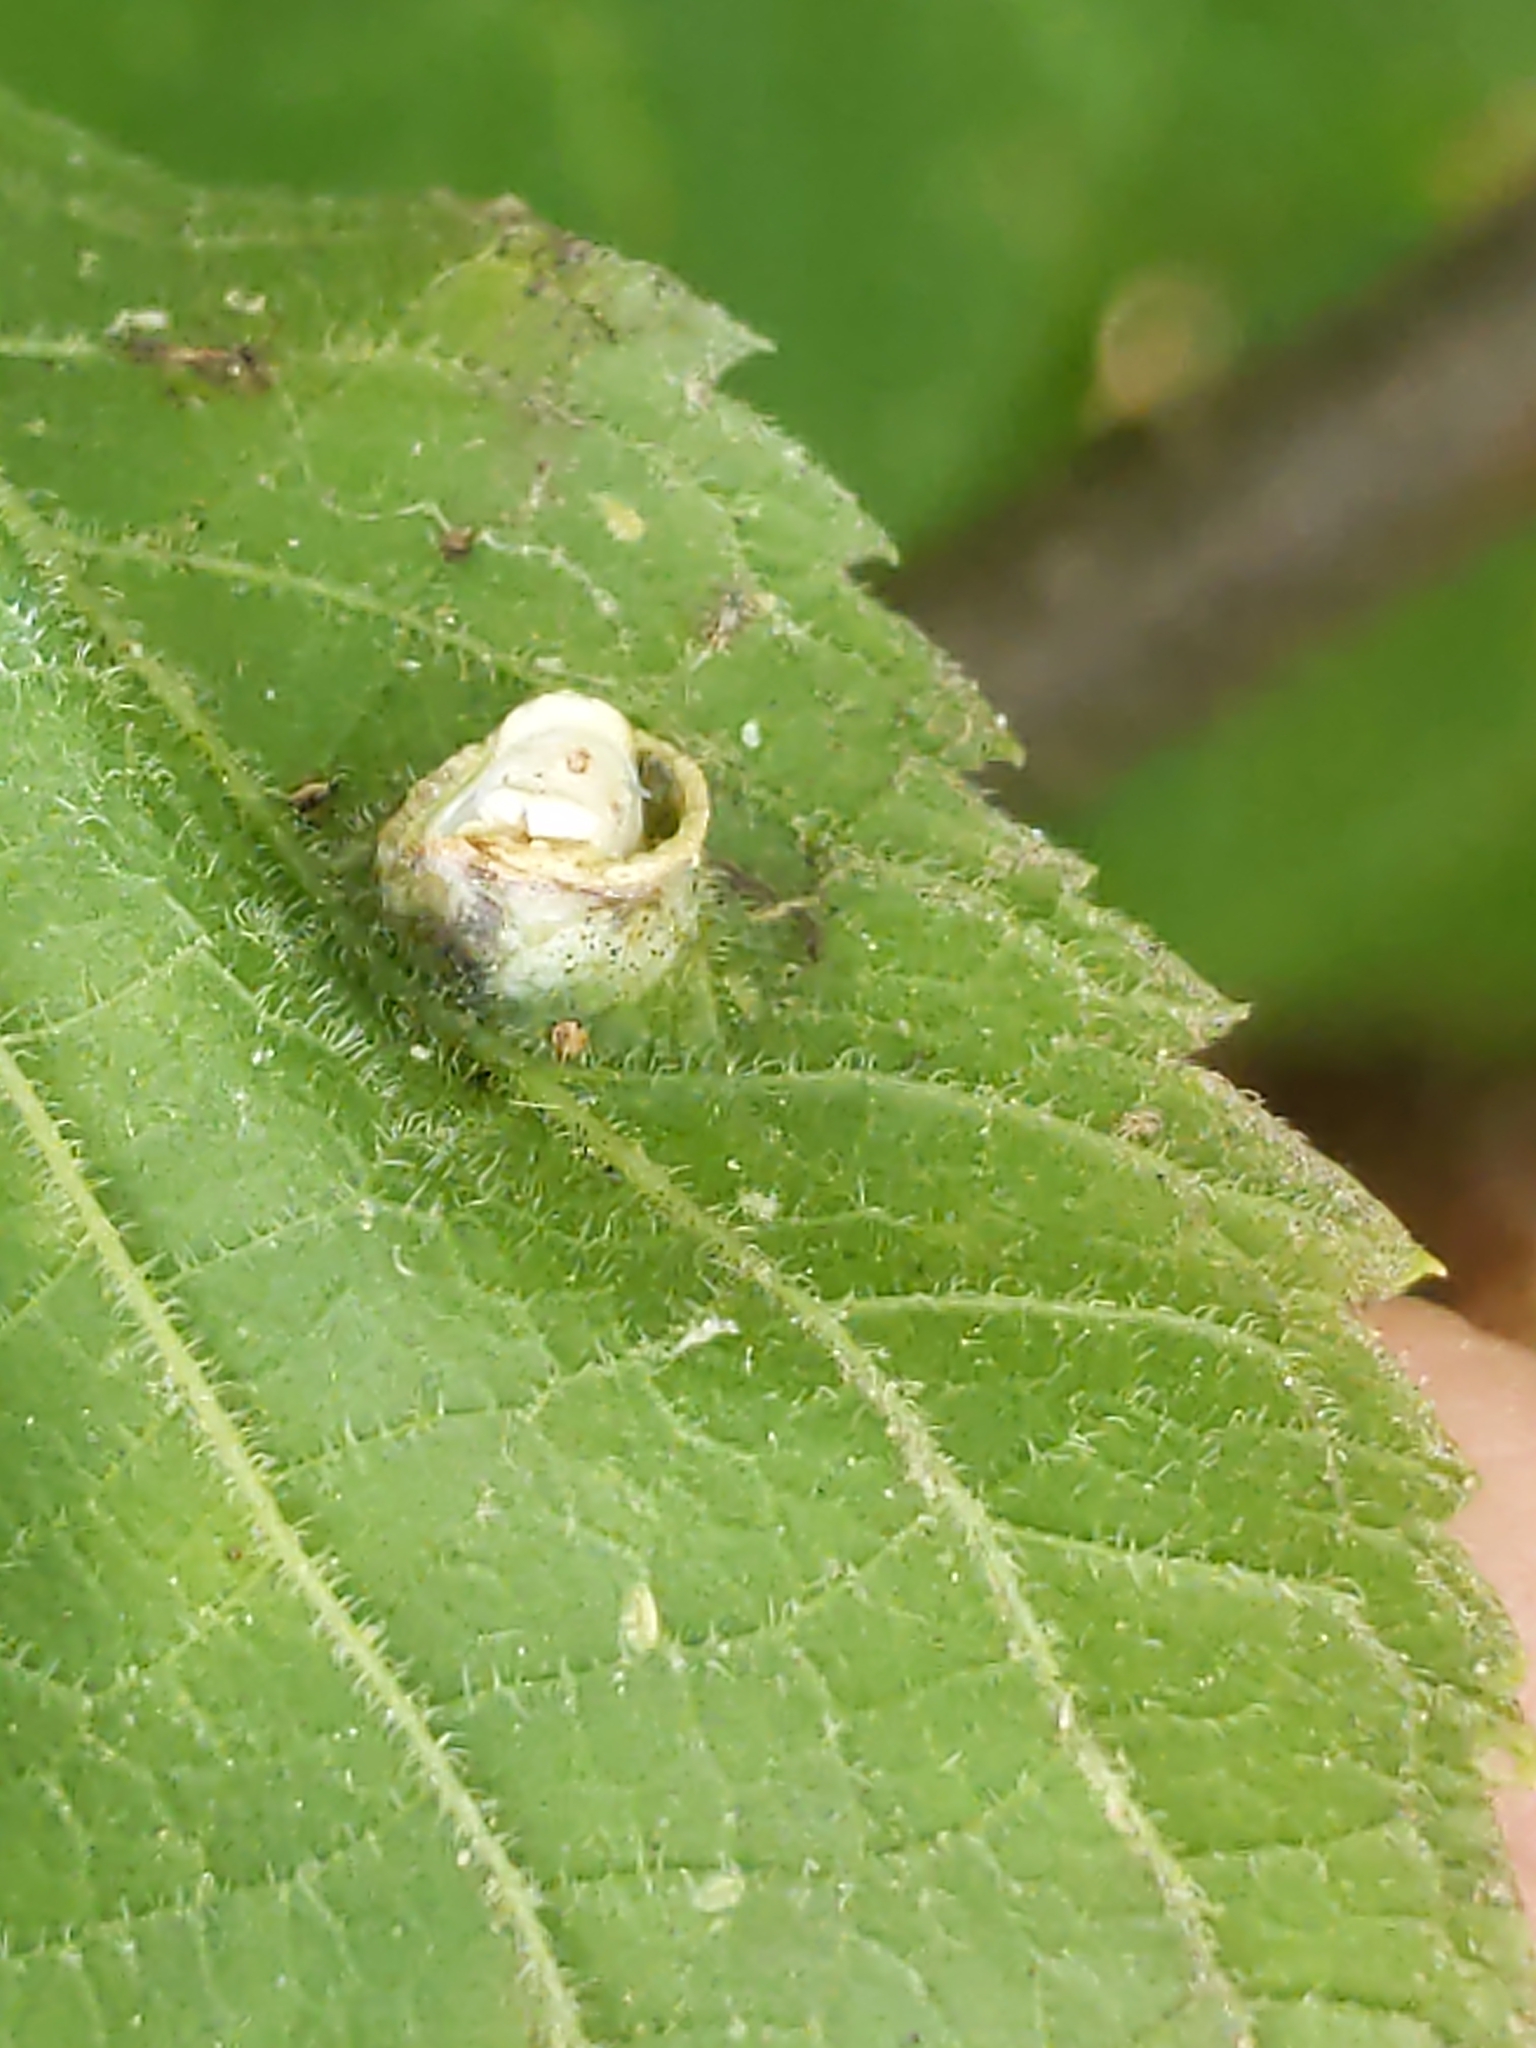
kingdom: Animalia
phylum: Arthropoda
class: Insecta
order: Hemiptera
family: Aphalaridae
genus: Pachypsylla
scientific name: Pachypsylla celtidismamma
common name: Hackberry nipplegall psyllid
